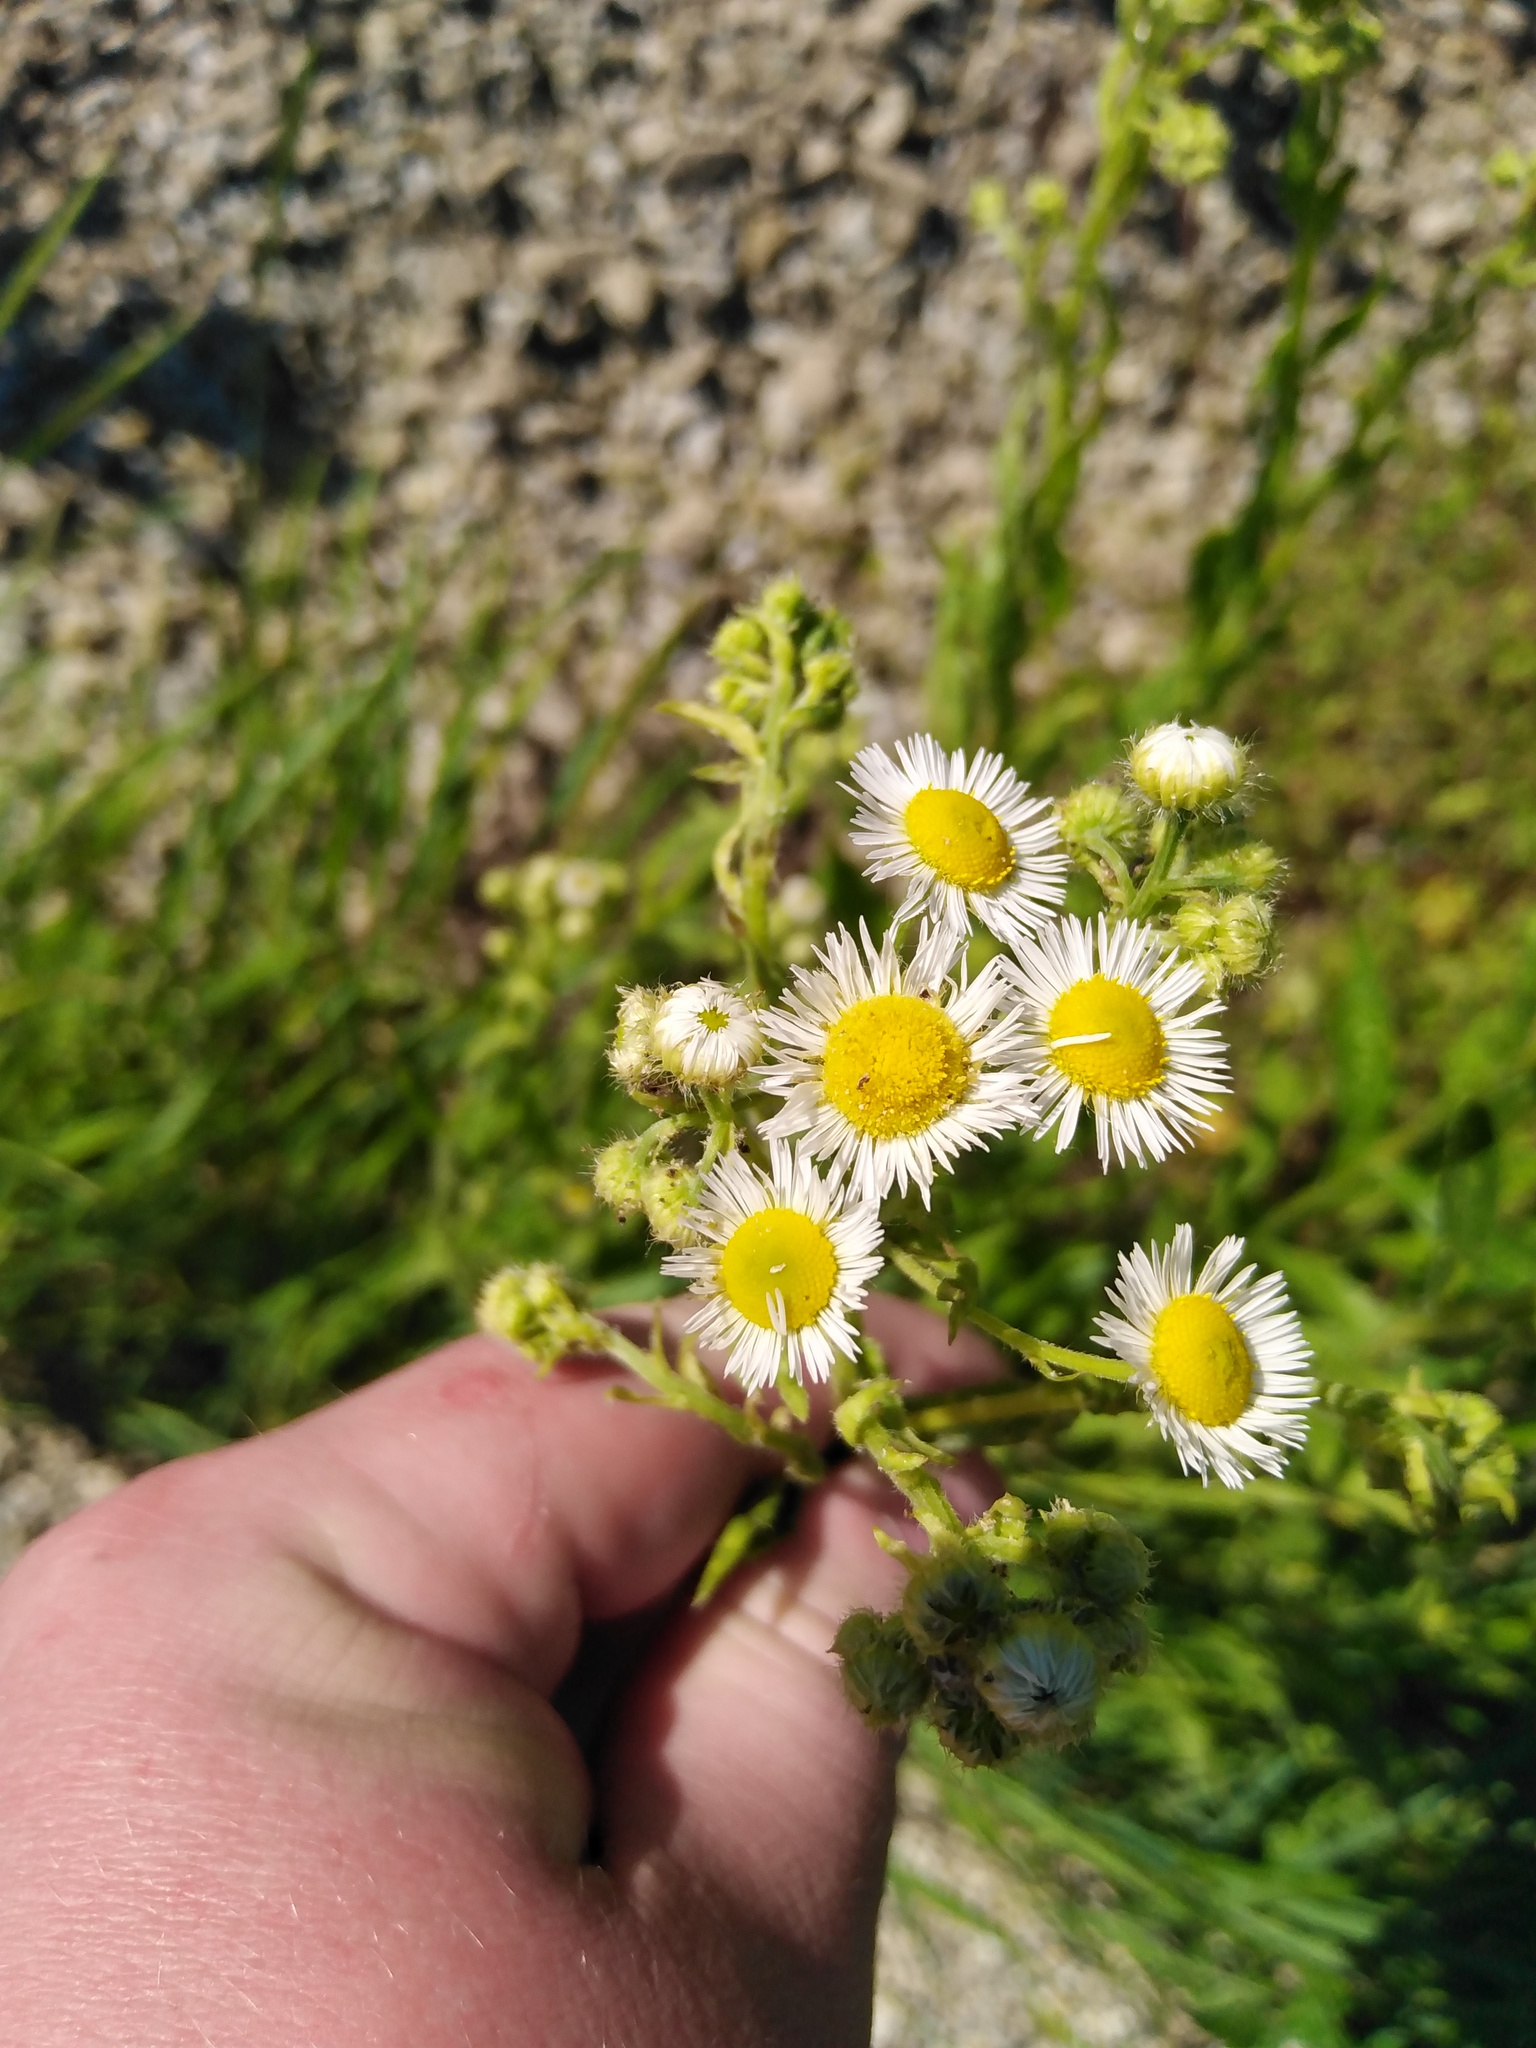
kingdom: Plantae
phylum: Tracheophyta
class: Magnoliopsida
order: Asterales
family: Asteraceae
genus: Erigeron
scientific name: Erigeron annuus
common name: Tall fleabane
